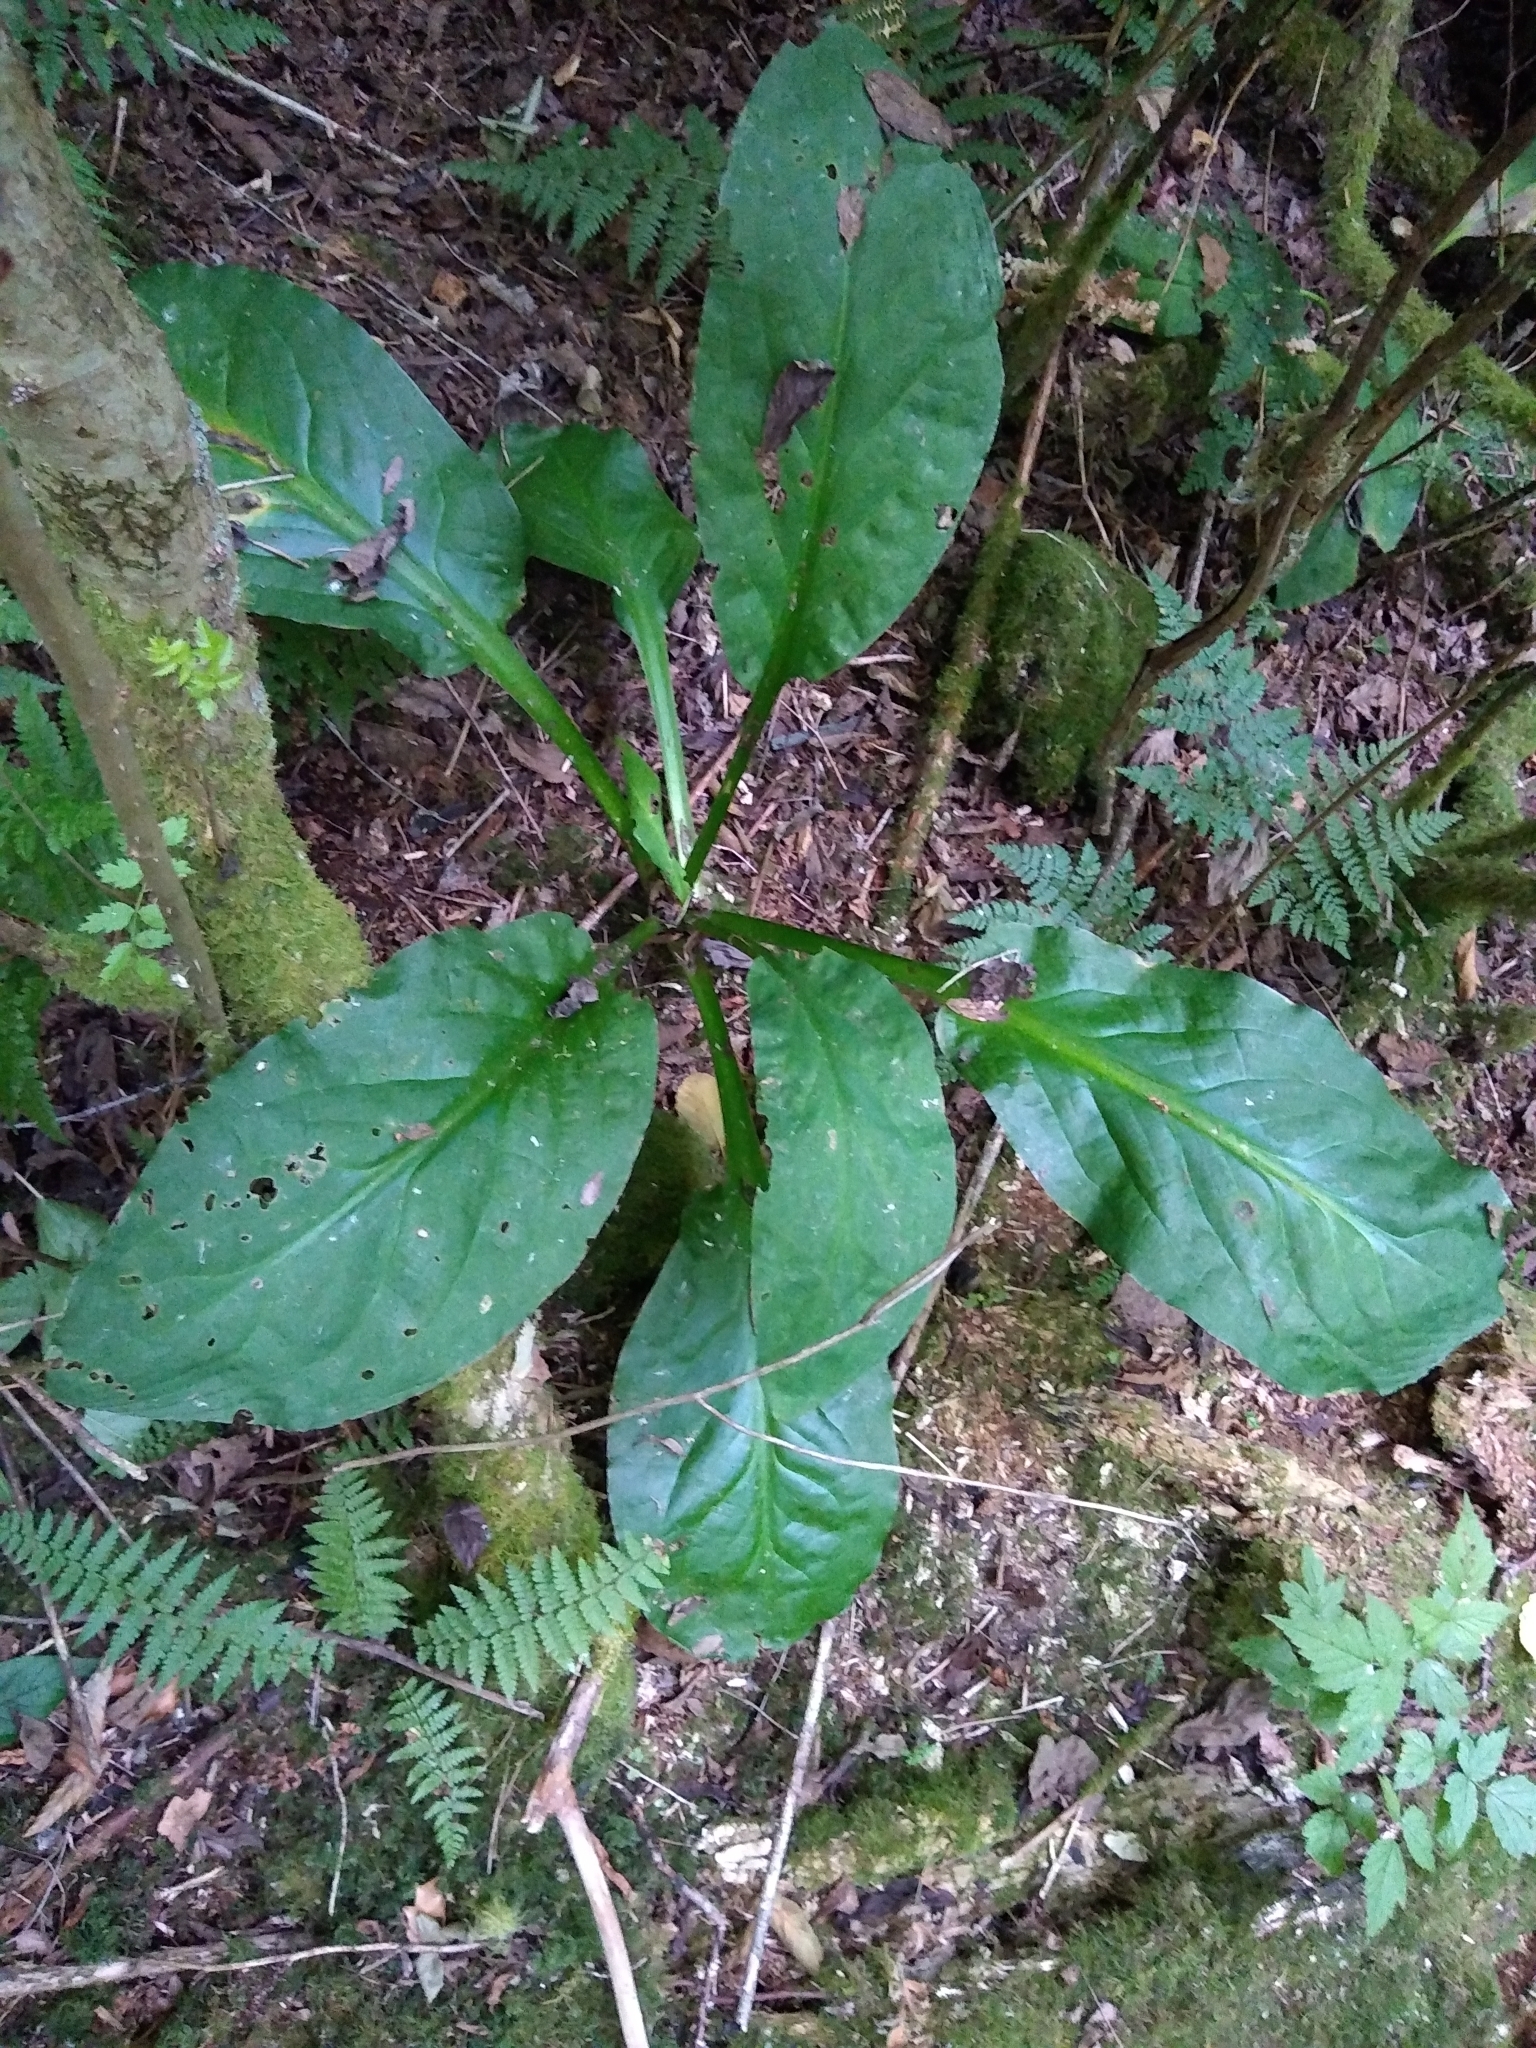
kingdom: Plantae
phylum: Tracheophyta
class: Liliopsida
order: Alismatales
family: Araceae
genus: Lysichiton
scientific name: Lysichiton americanus
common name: American skunk cabbage
